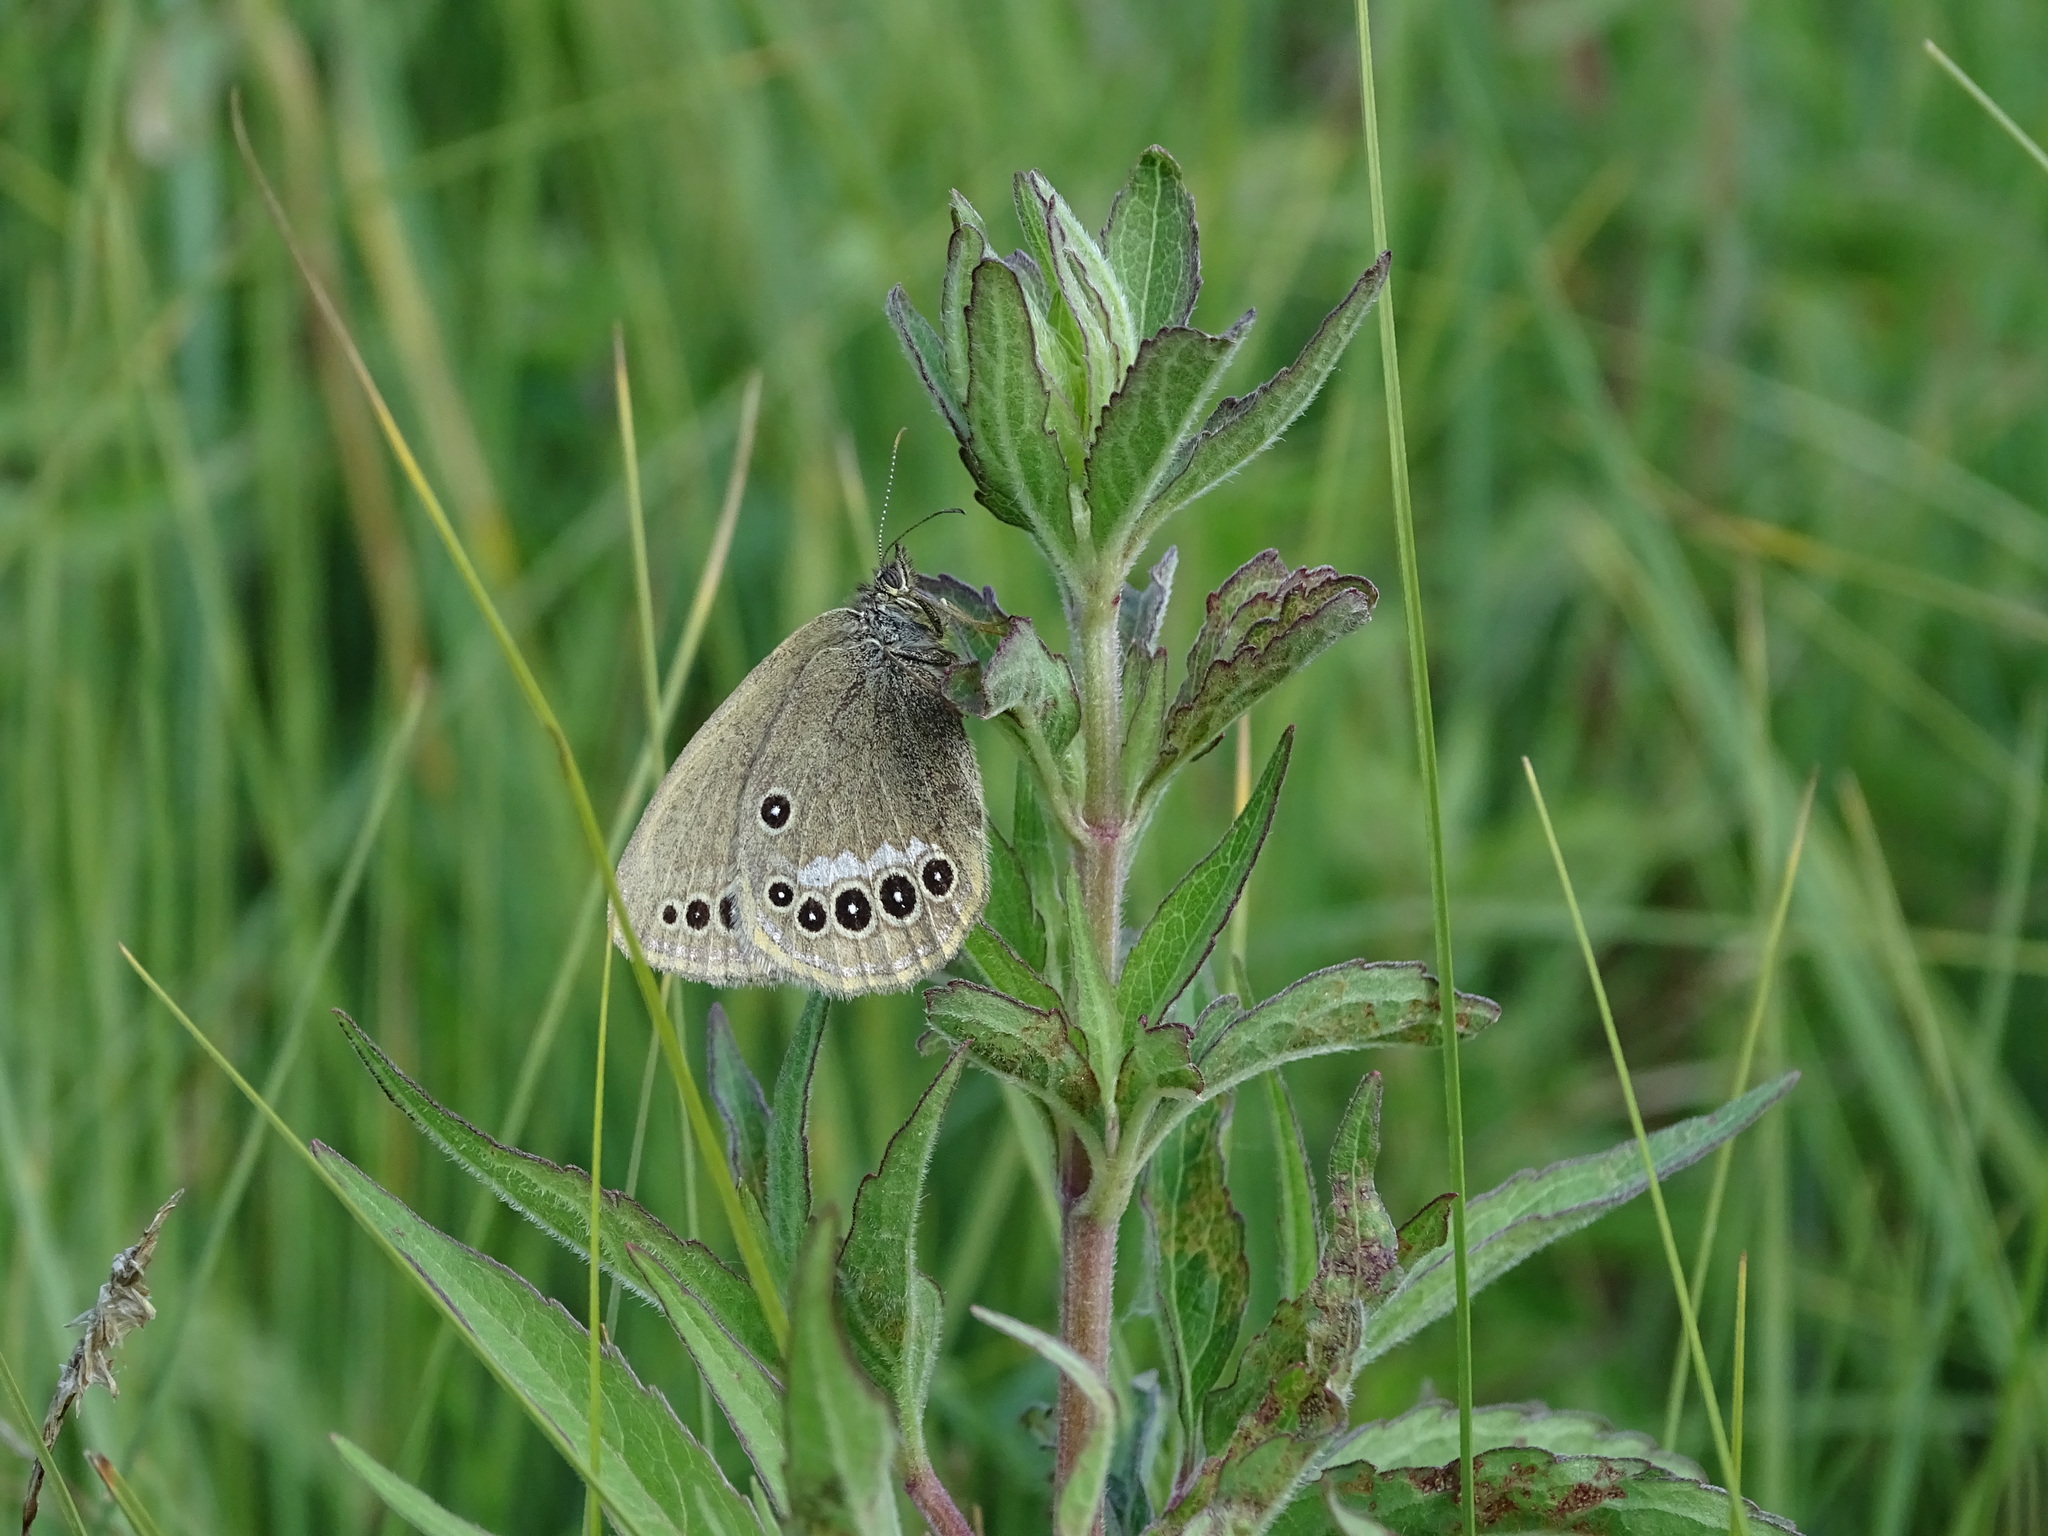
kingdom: Animalia
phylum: Arthropoda
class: Insecta
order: Lepidoptera
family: Nymphalidae
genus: Coenonympha
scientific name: Coenonympha oedippus
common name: False ringlet
